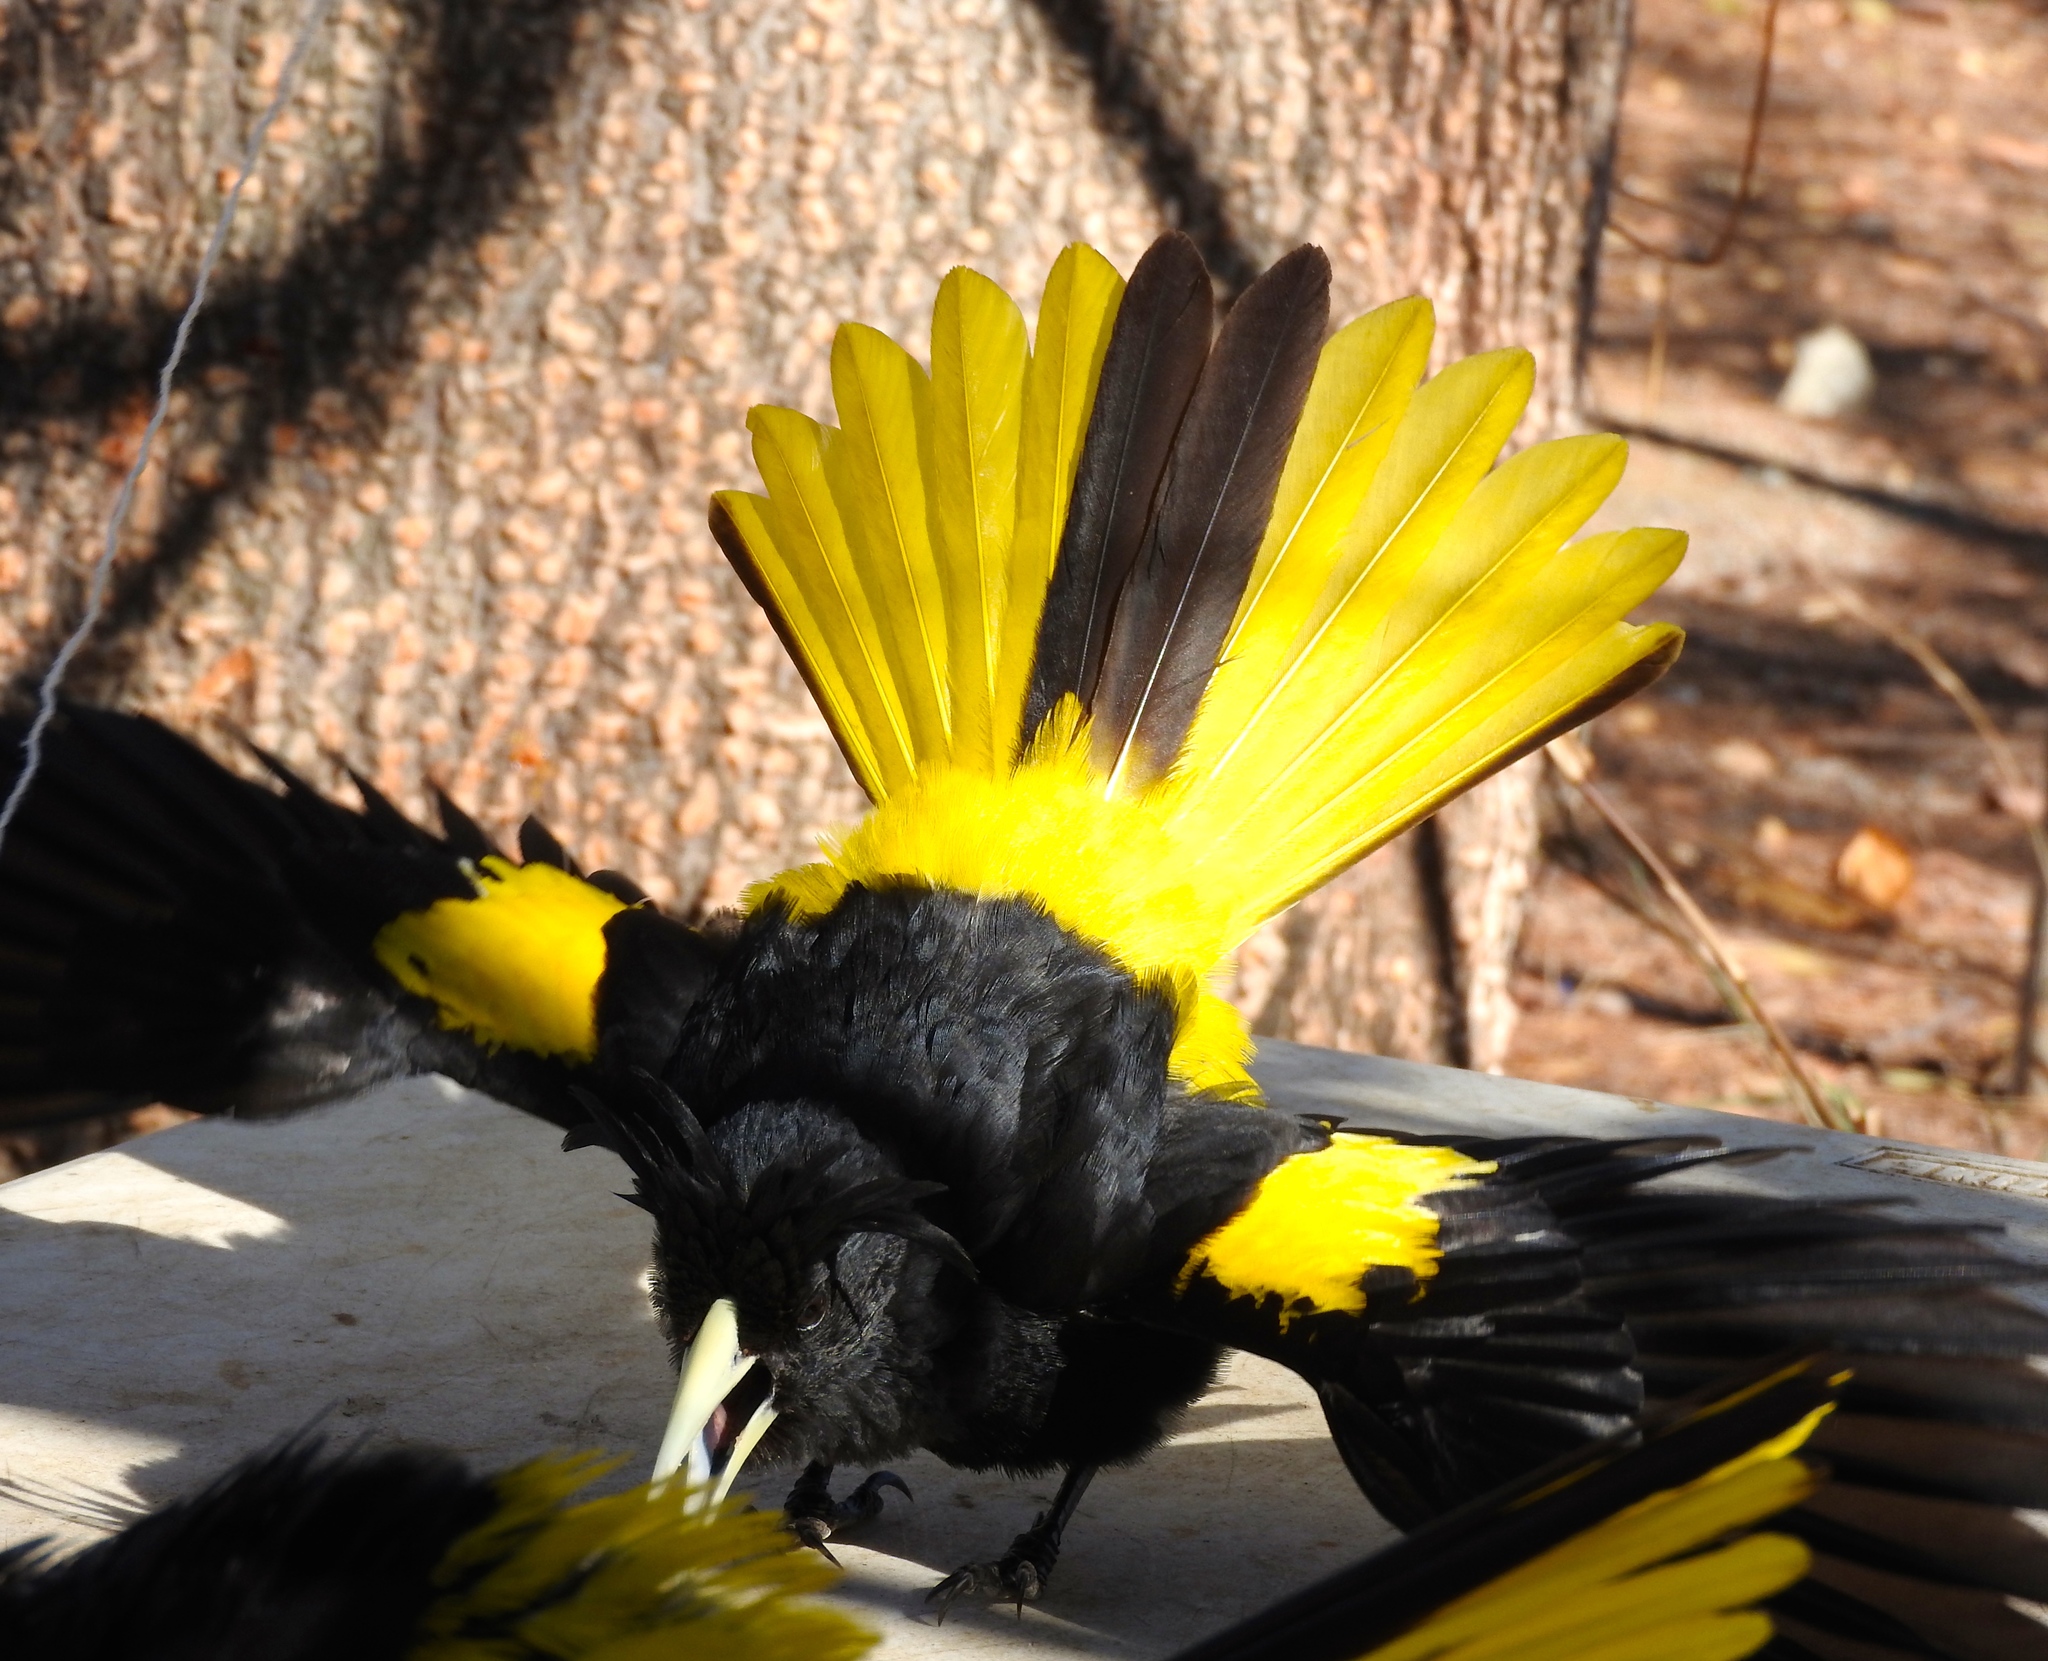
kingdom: Animalia
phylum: Chordata
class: Aves
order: Passeriformes
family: Icteridae
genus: Cacicus
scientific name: Cacicus melanicterus
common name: Yellow-winged cacique
